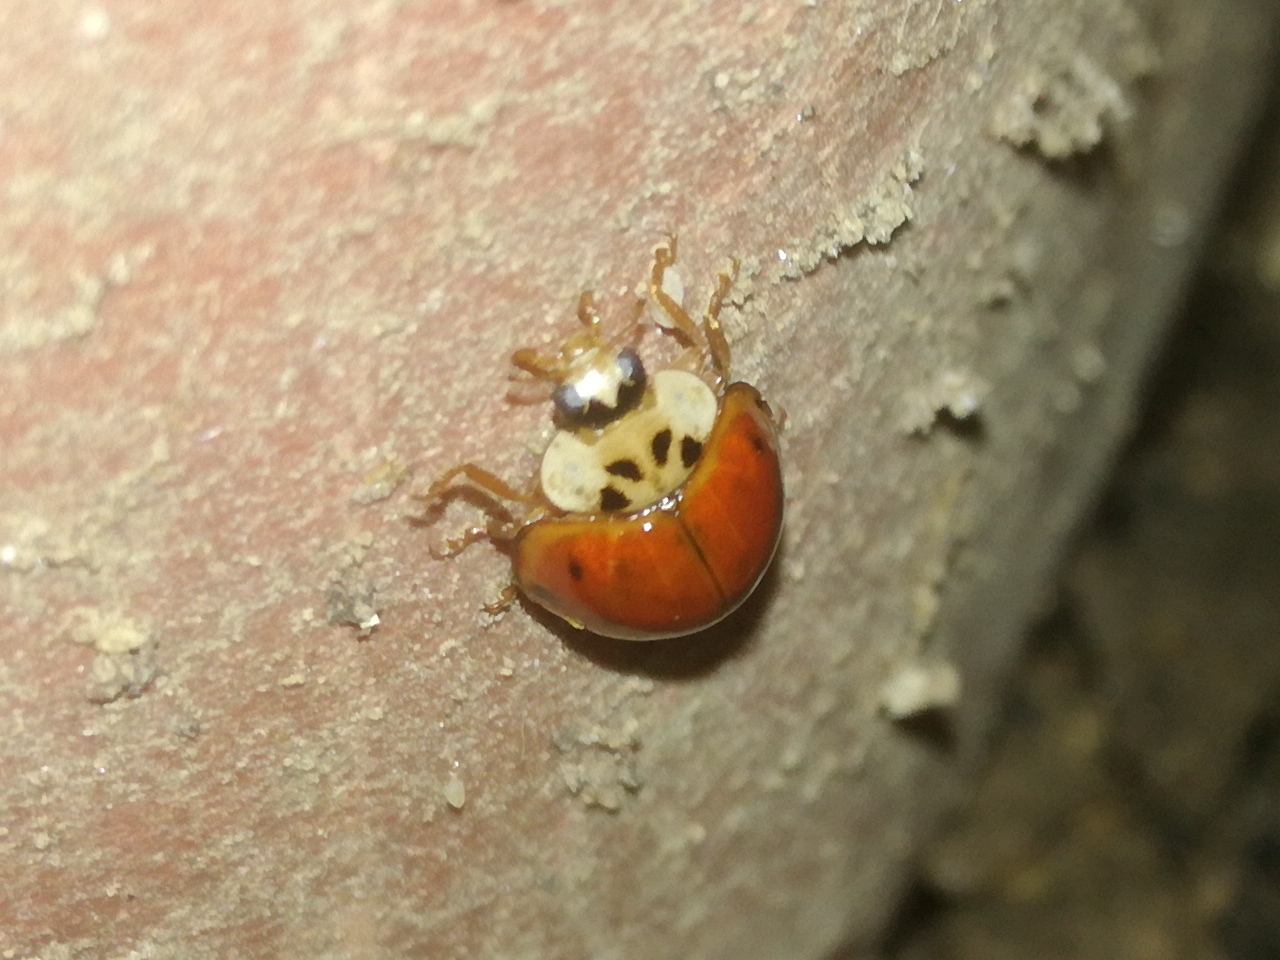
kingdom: Animalia
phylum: Arthropoda
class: Insecta
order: Coleoptera
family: Coccinellidae
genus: Harmonia
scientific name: Harmonia axyridis
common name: Harlequin ladybird
